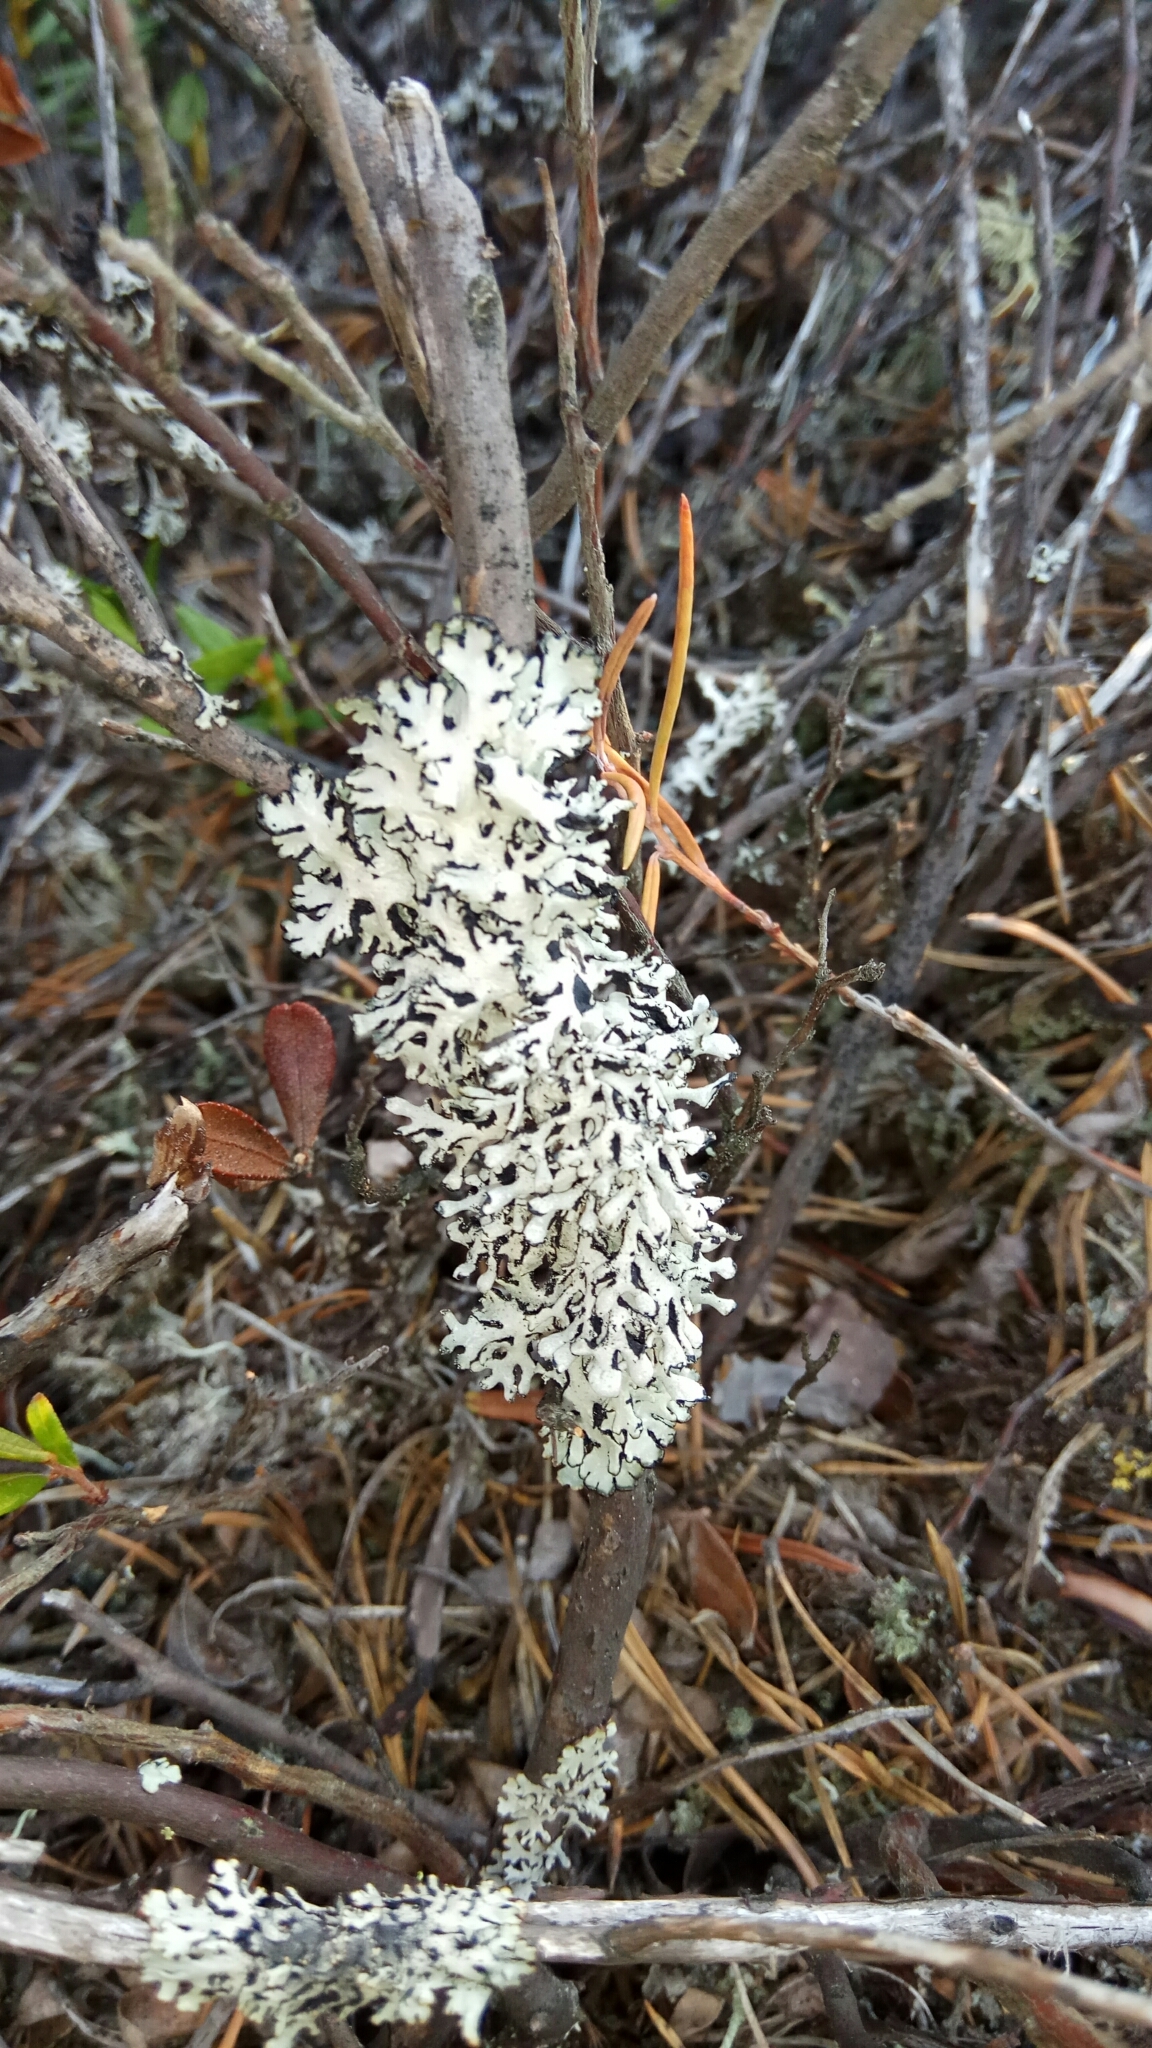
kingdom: Fungi
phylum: Ascomycota
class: Lecanoromycetes
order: Lecanorales
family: Parmeliaceae
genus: Hypogymnia
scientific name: Hypogymnia physodes
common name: Dark crottle
